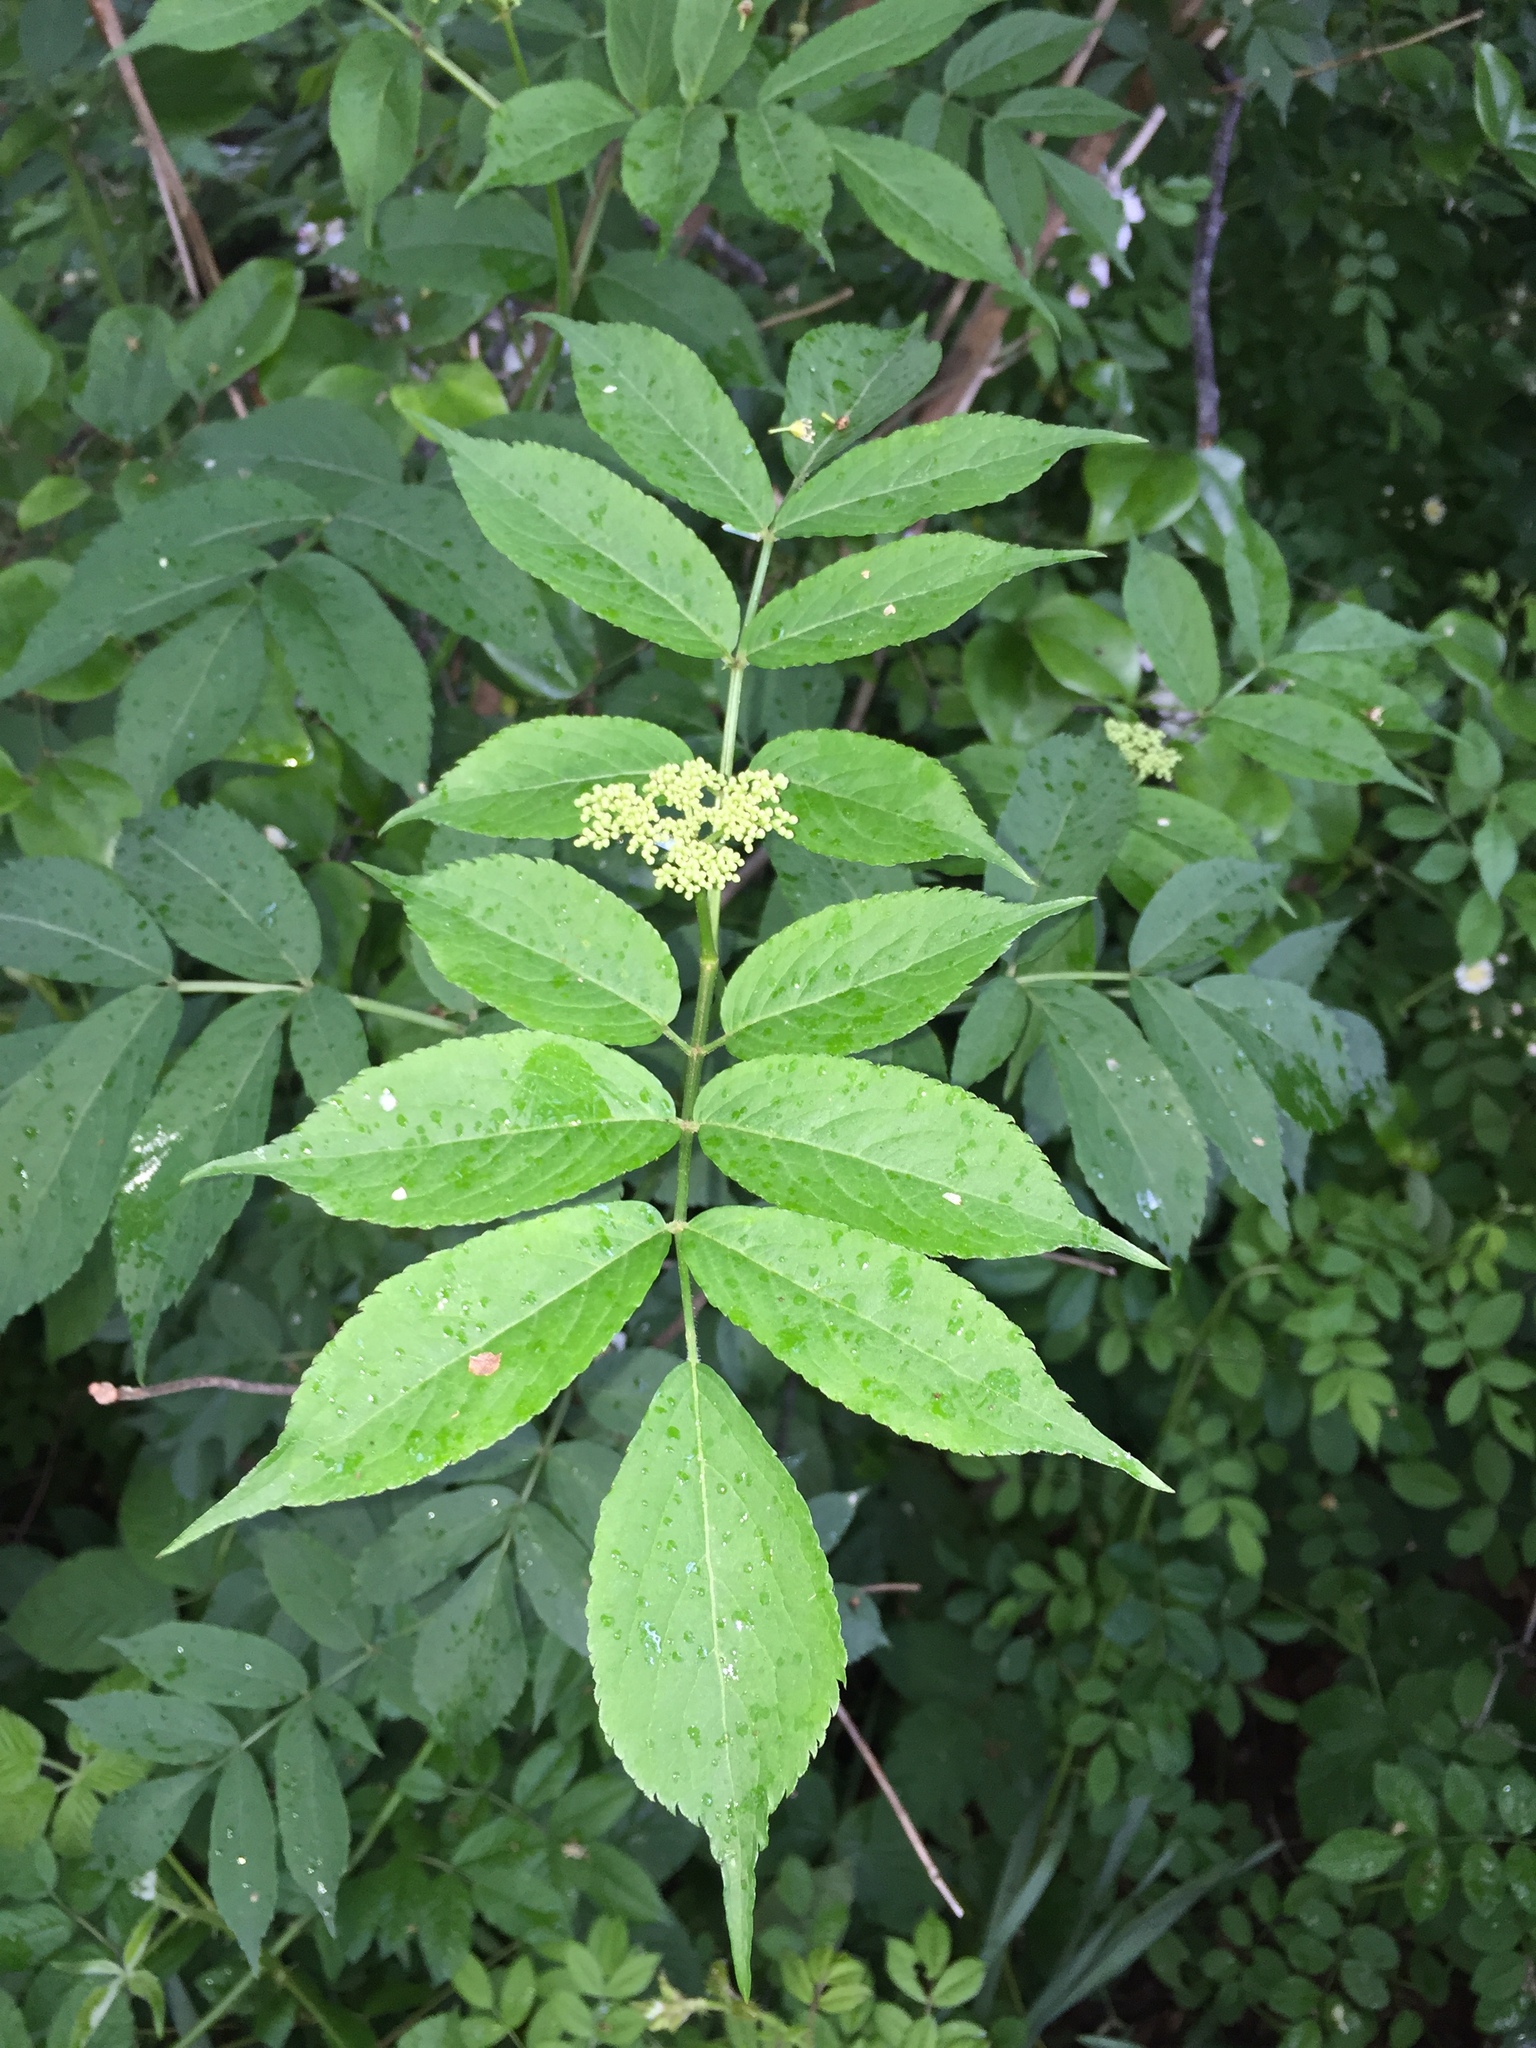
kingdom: Plantae
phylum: Tracheophyta
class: Magnoliopsida
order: Dipsacales
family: Viburnaceae
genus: Sambucus
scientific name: Sambucus canadensis
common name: American elder
